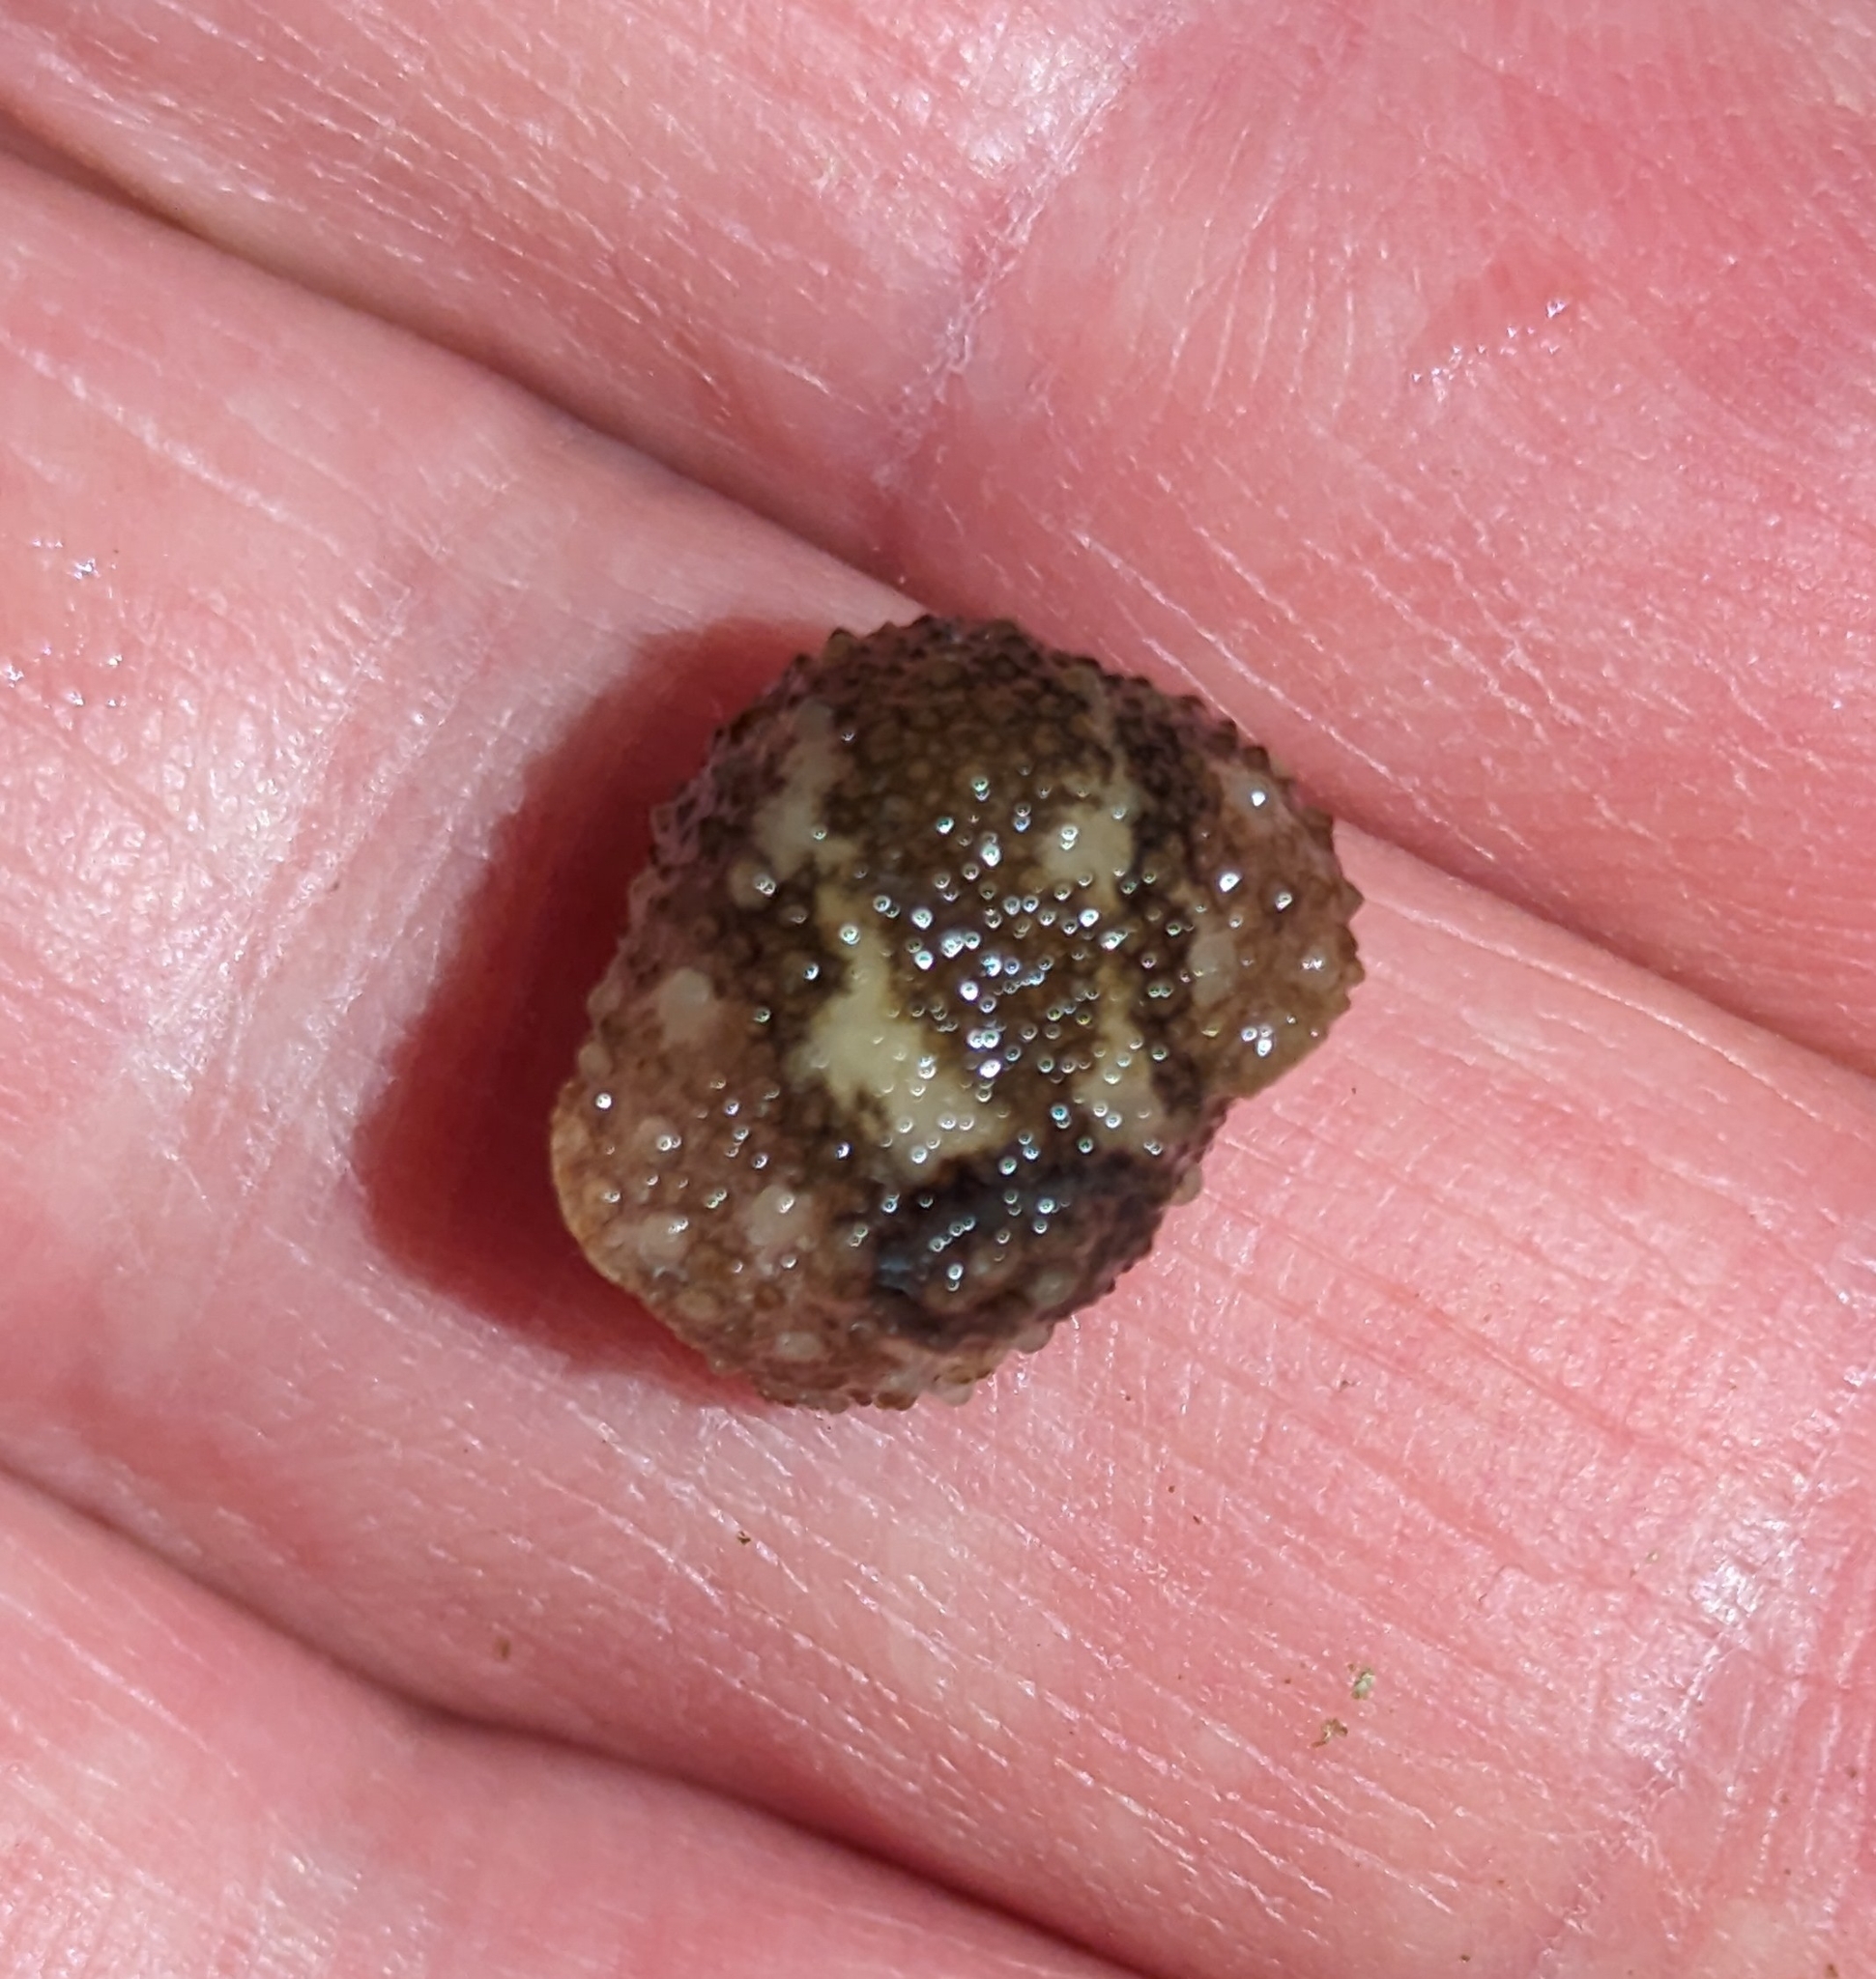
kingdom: Animalia
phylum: Mollusca
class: Gastropoda
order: Nudibranchia
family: Onchidorididae
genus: Onchidoris
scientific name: Onchidoris bilamellata
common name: Barnacle-eating onchidoris
